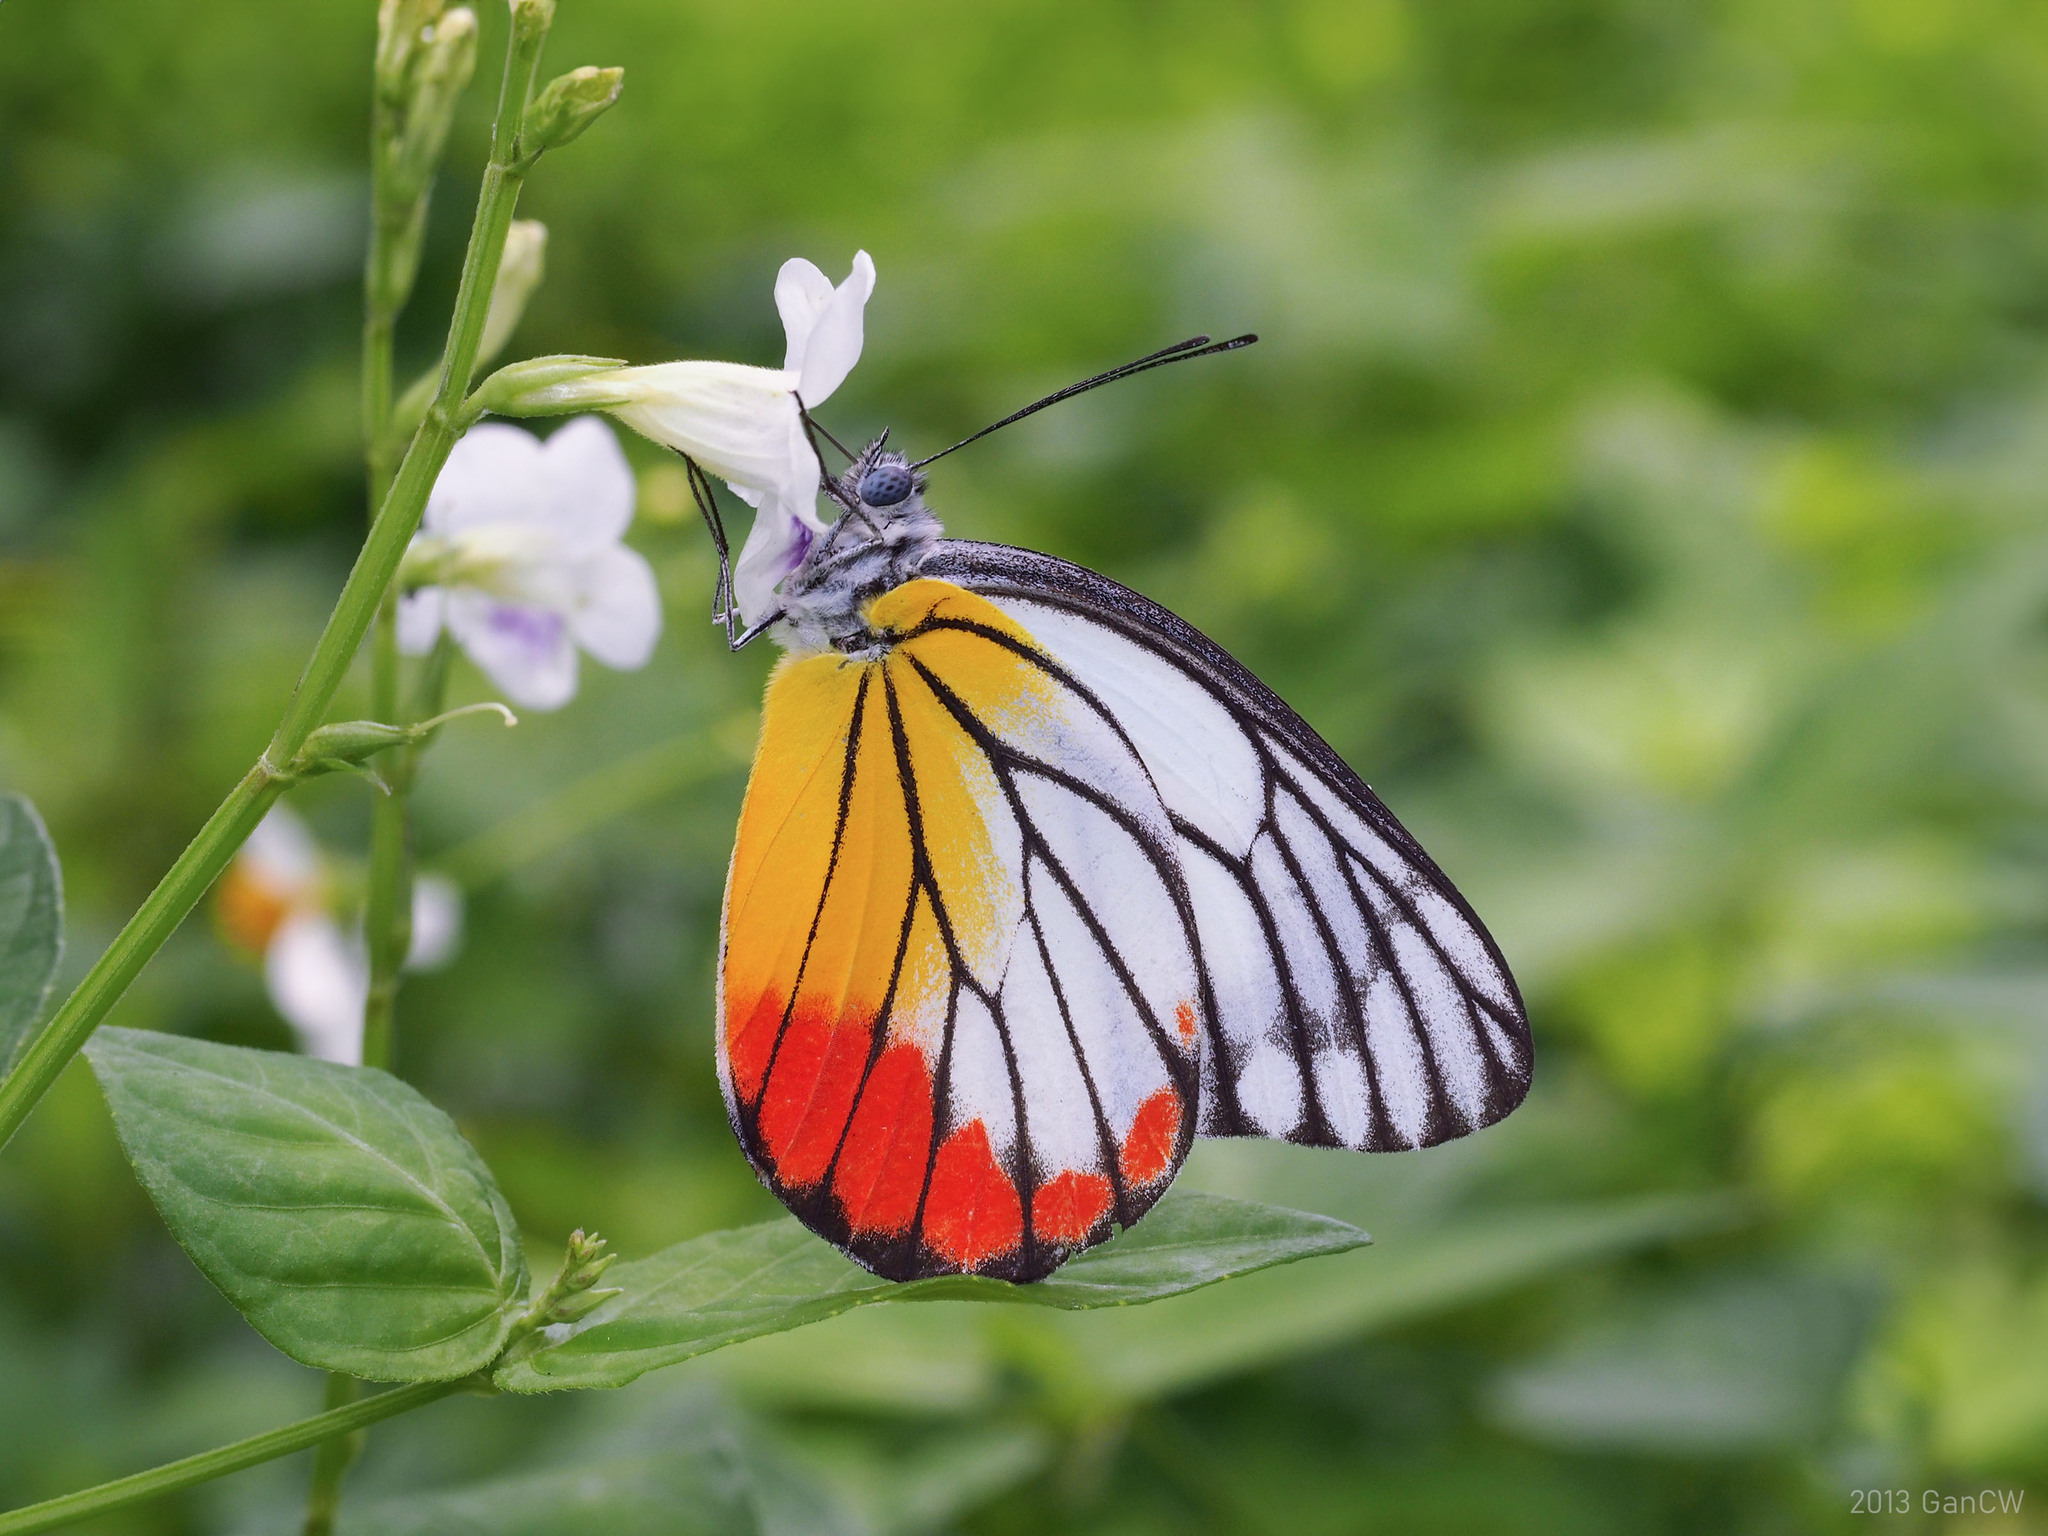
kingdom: Animalia
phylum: Arthropoda
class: Insecta
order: Lepidoptera
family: Pieridae
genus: Delias
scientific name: Delias hyparete
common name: Painted jezebel
